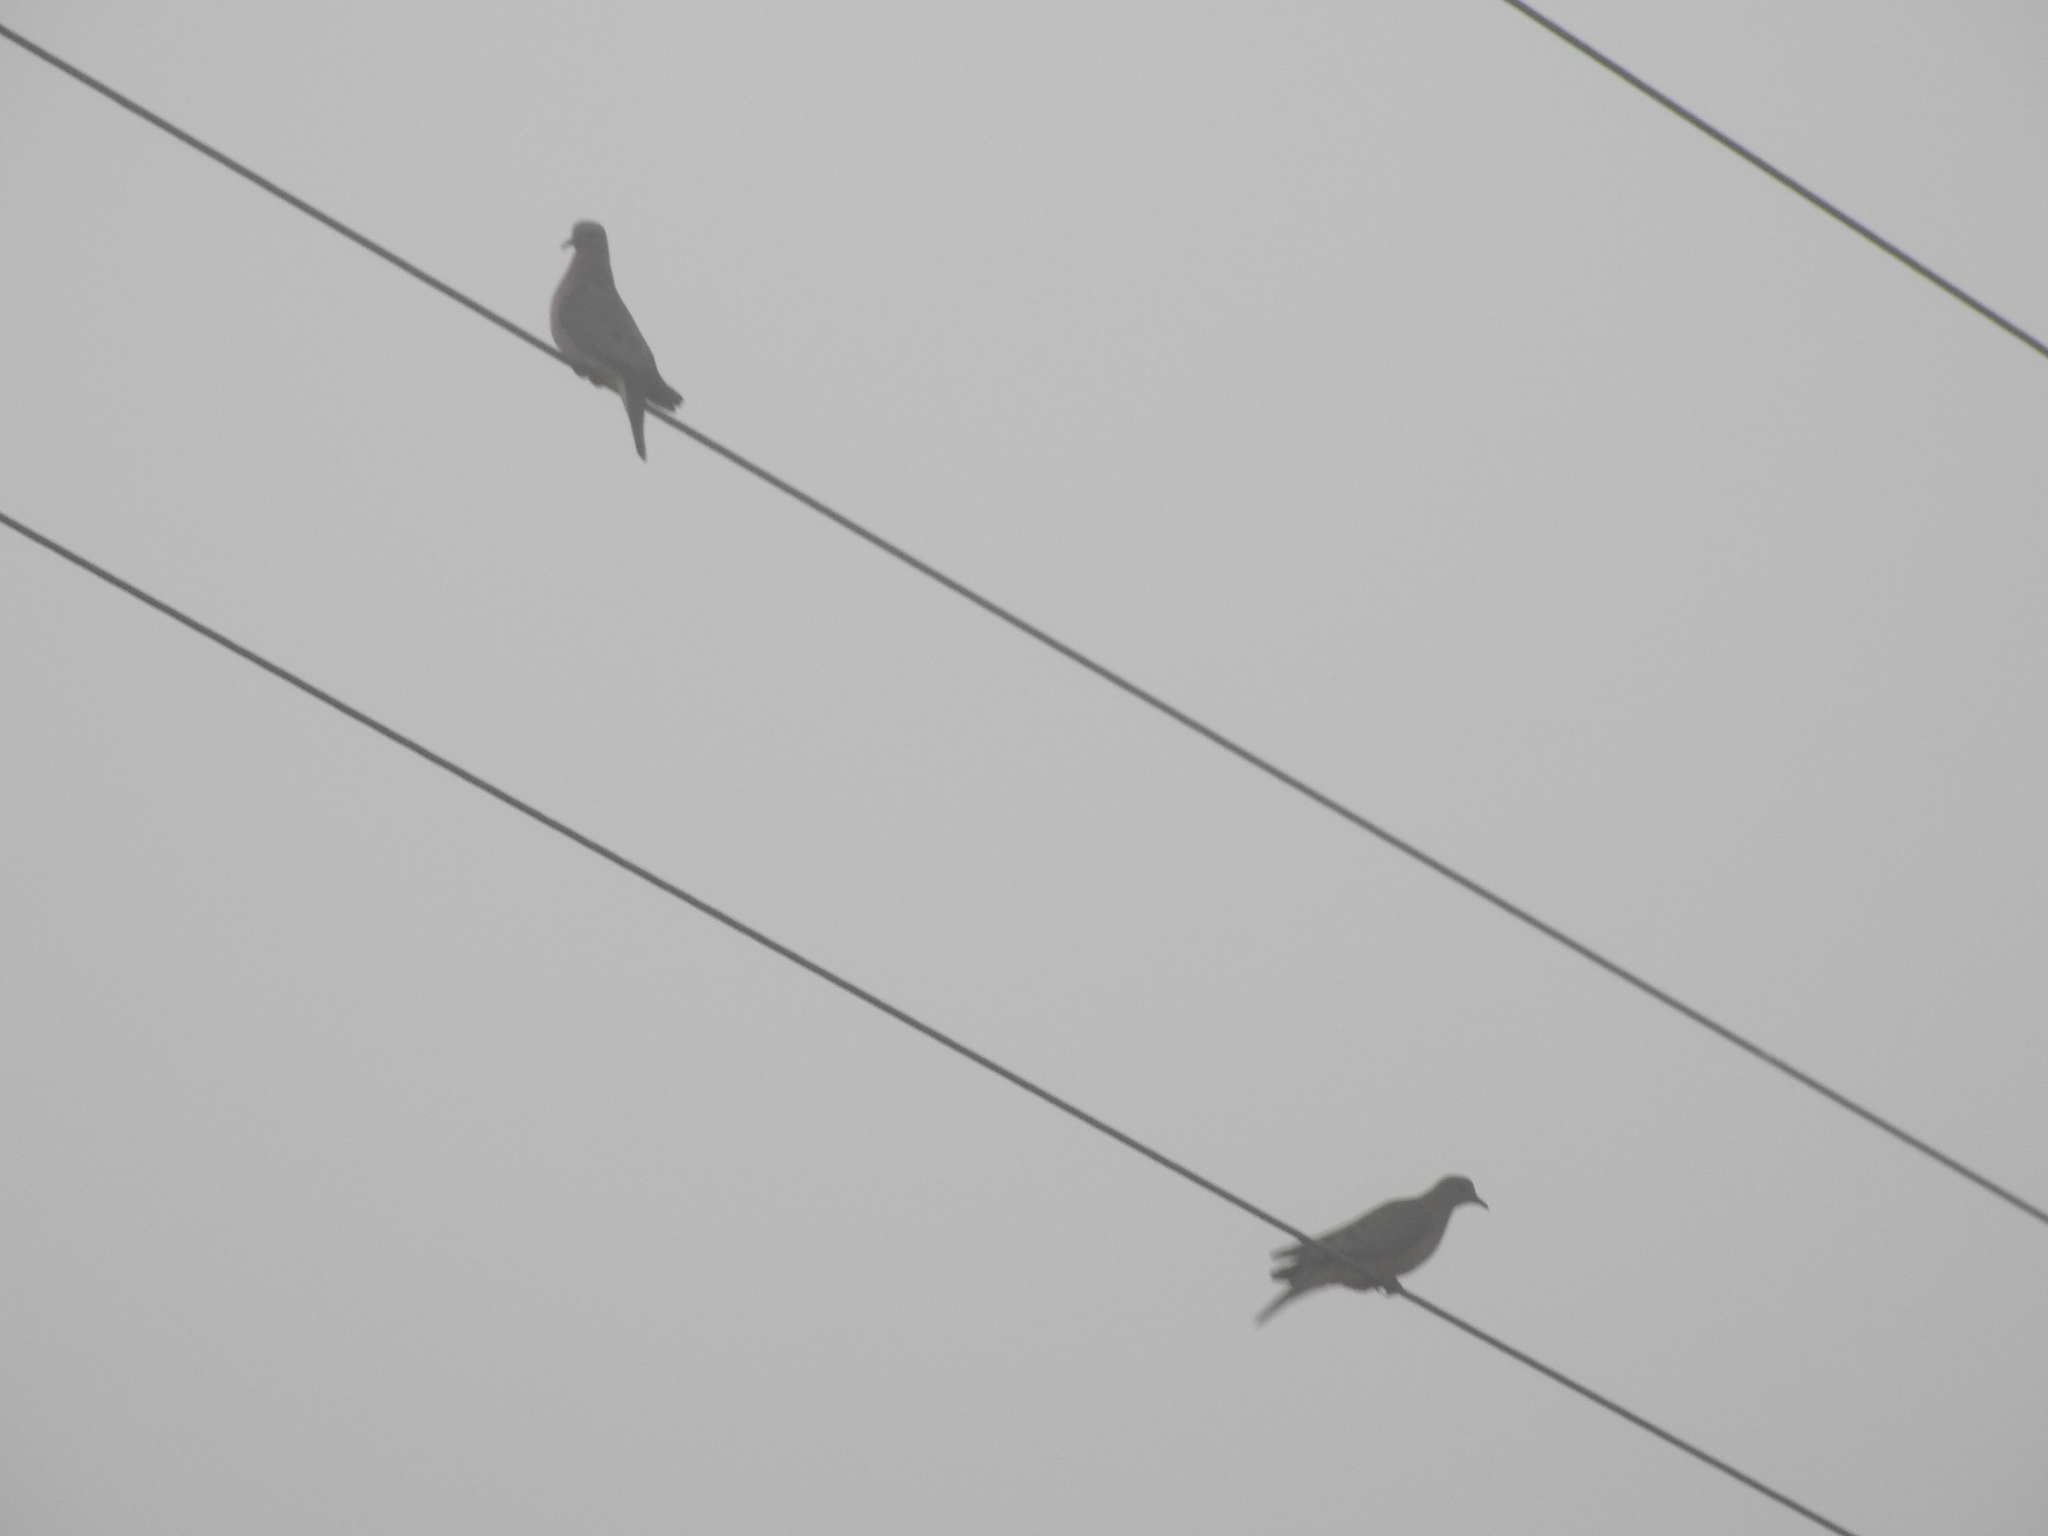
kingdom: Animalia
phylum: Chordata
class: Aves
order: Columbiformes
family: Columbidae
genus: Zenaida
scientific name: Zenaida auriculata
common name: Eared dove
